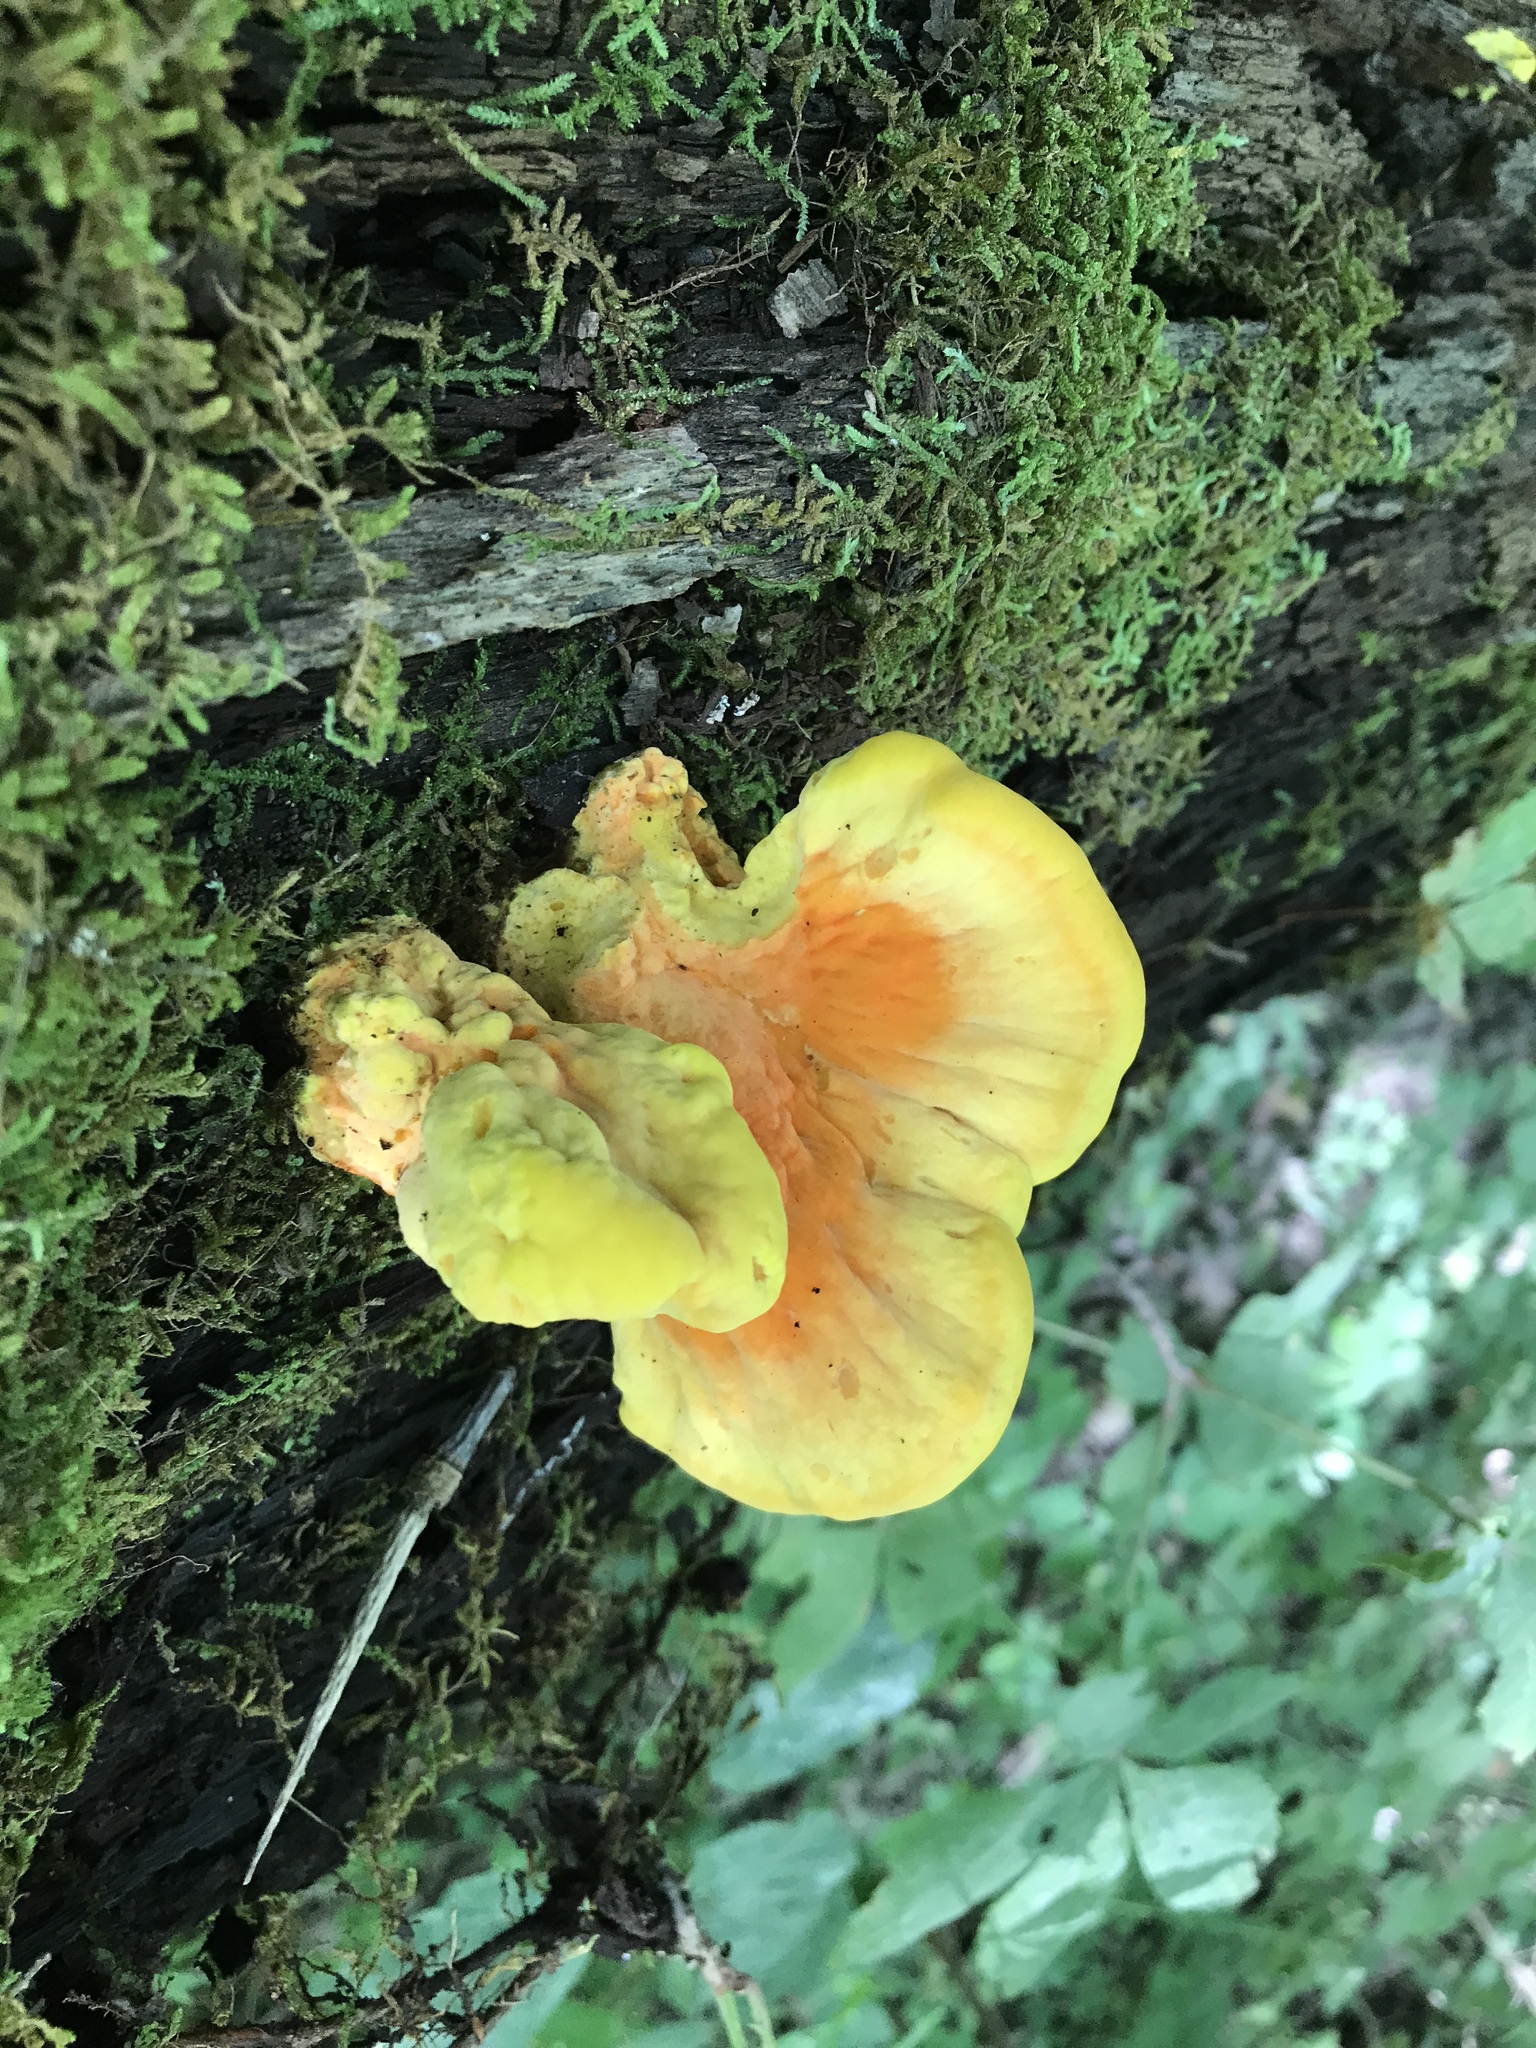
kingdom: Fungi
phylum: Basidiomycota
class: Agaricomycetes
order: Polyporales
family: Laetiporaceae
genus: Laetiporus
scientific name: Laetiporus sulphureus
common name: Chicken of the woods
